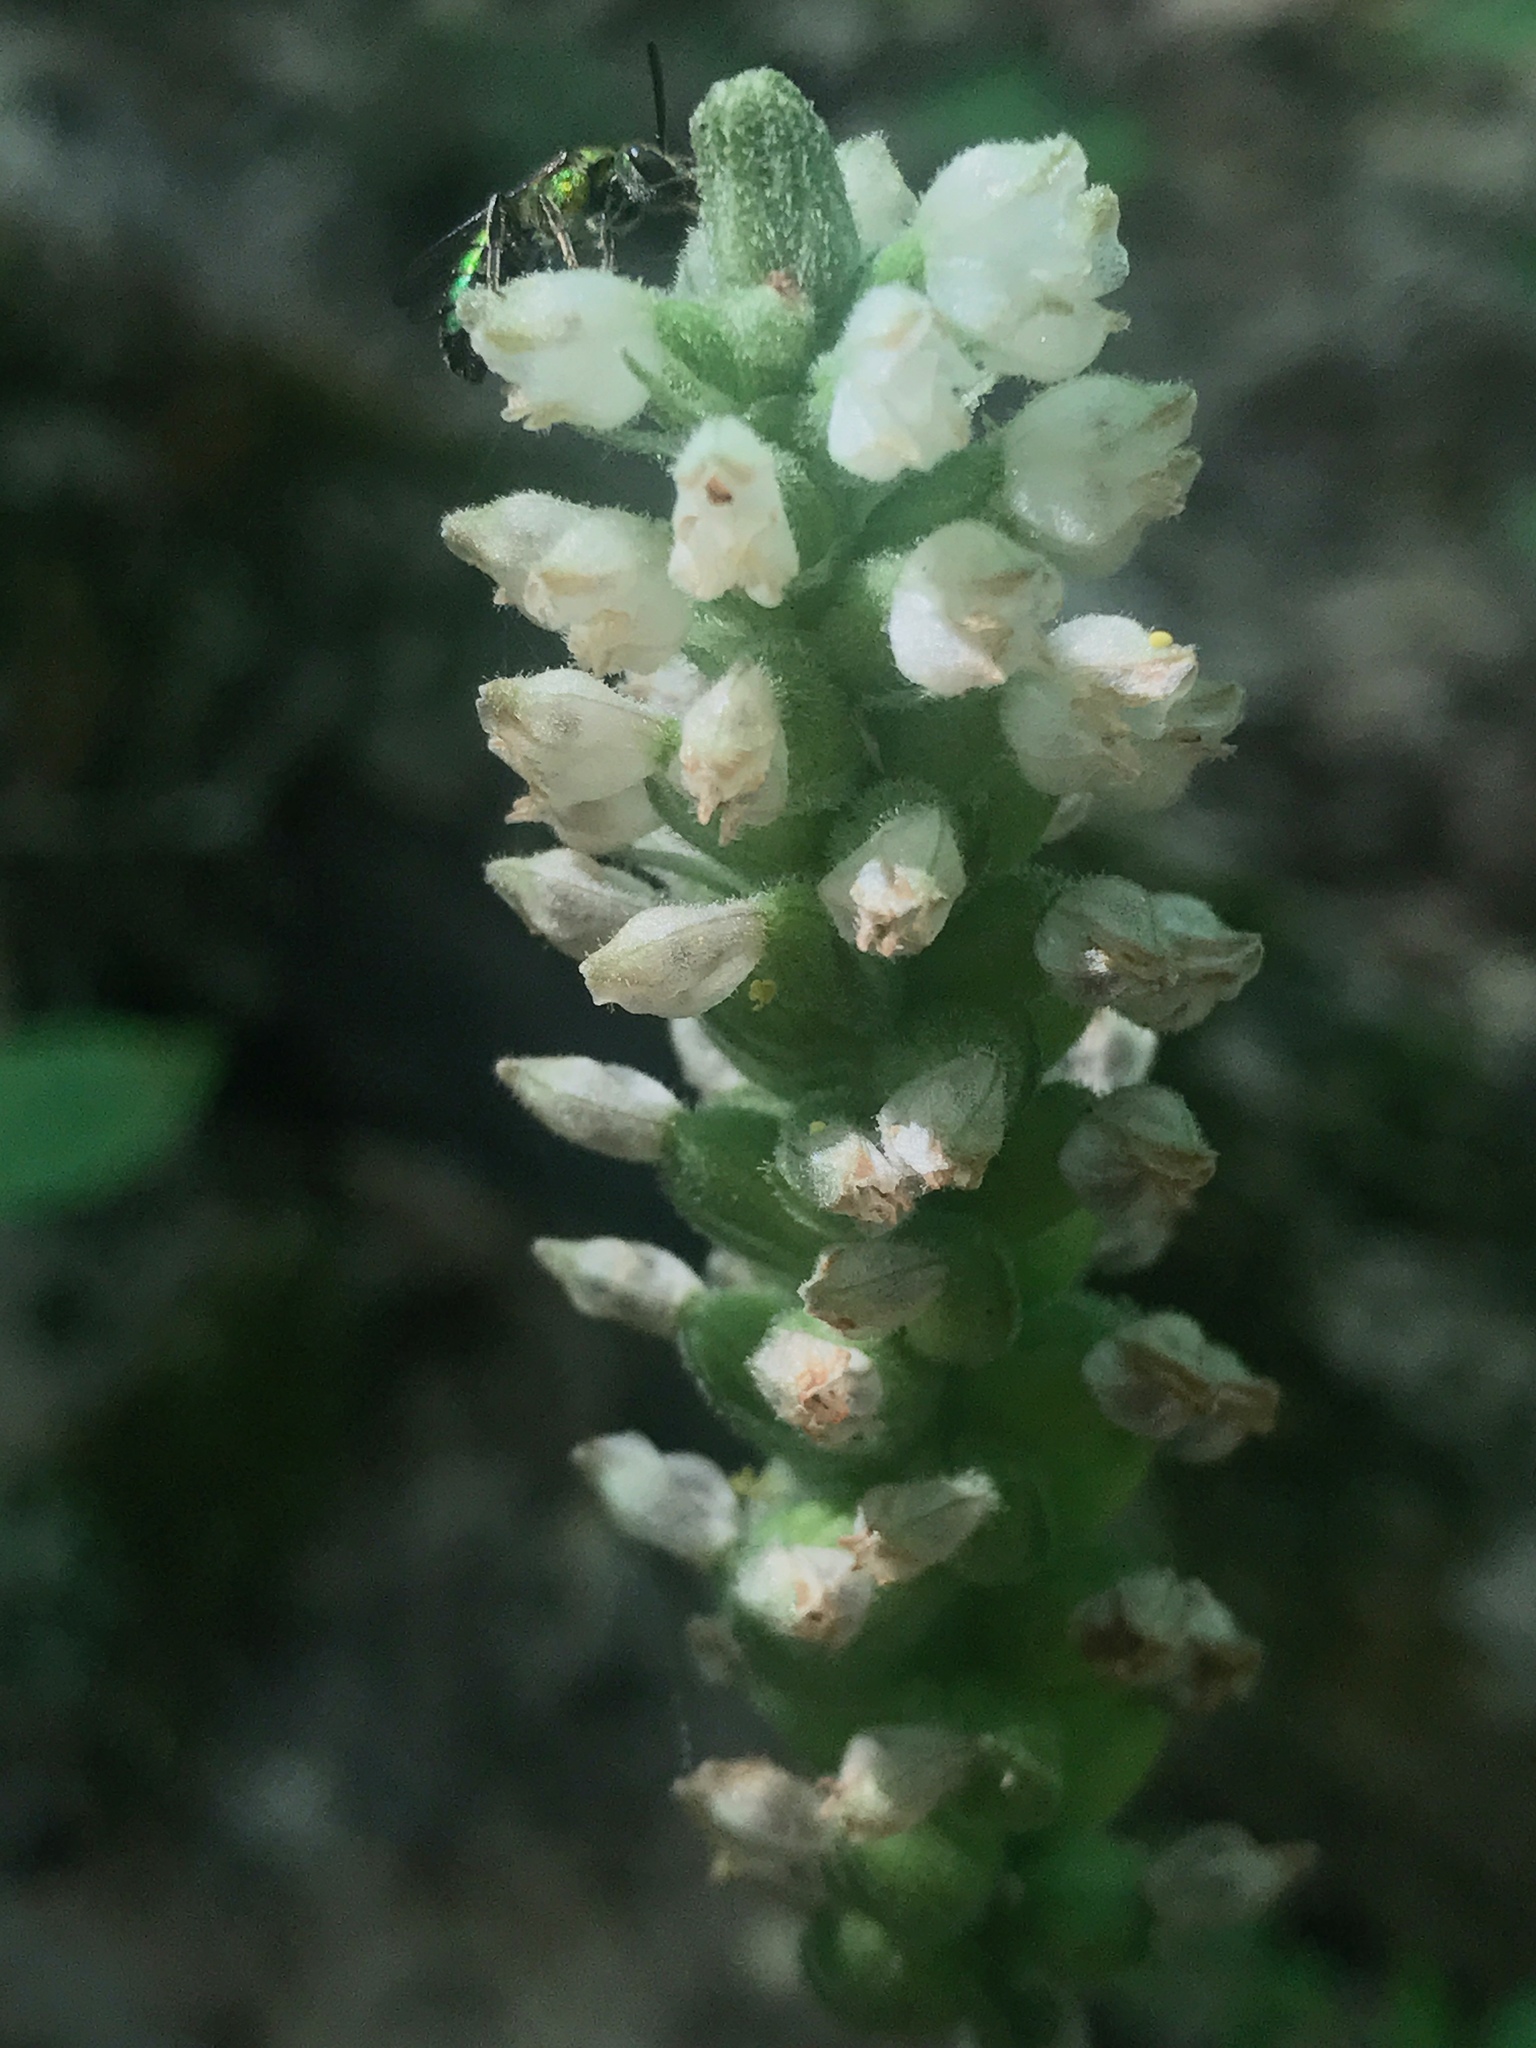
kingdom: Plantae
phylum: Tracheophyta
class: Liliopsida
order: Asparagales
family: Orchidaceae
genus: Goodyera
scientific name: Goodyera pubescens
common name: Downy rattlesnake-plantain
